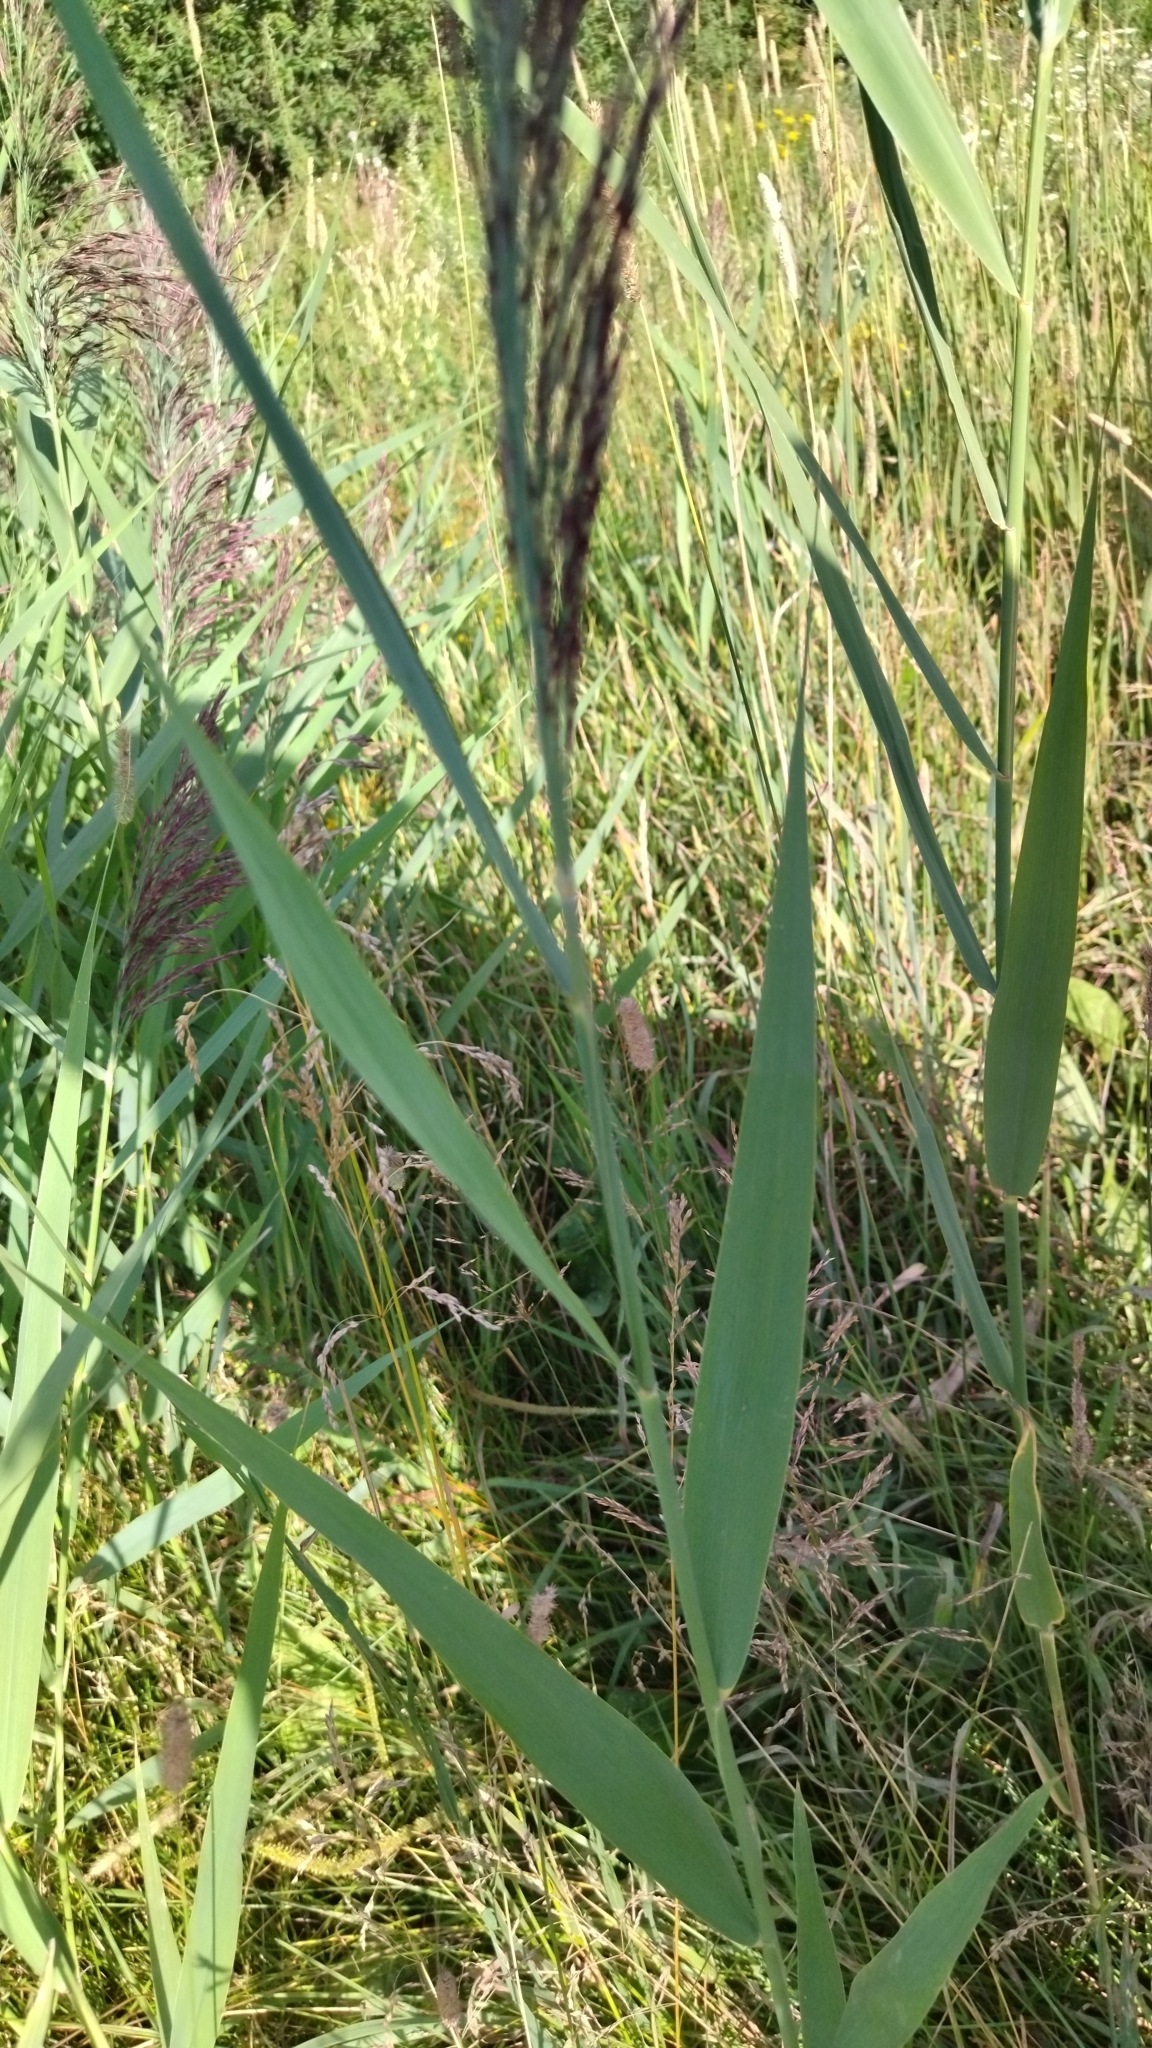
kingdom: Plantae
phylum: Tracheophyta
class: Liliopsida
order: Poales
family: Poaceae
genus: Phragmites
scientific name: Phragmites australis
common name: Common reed
